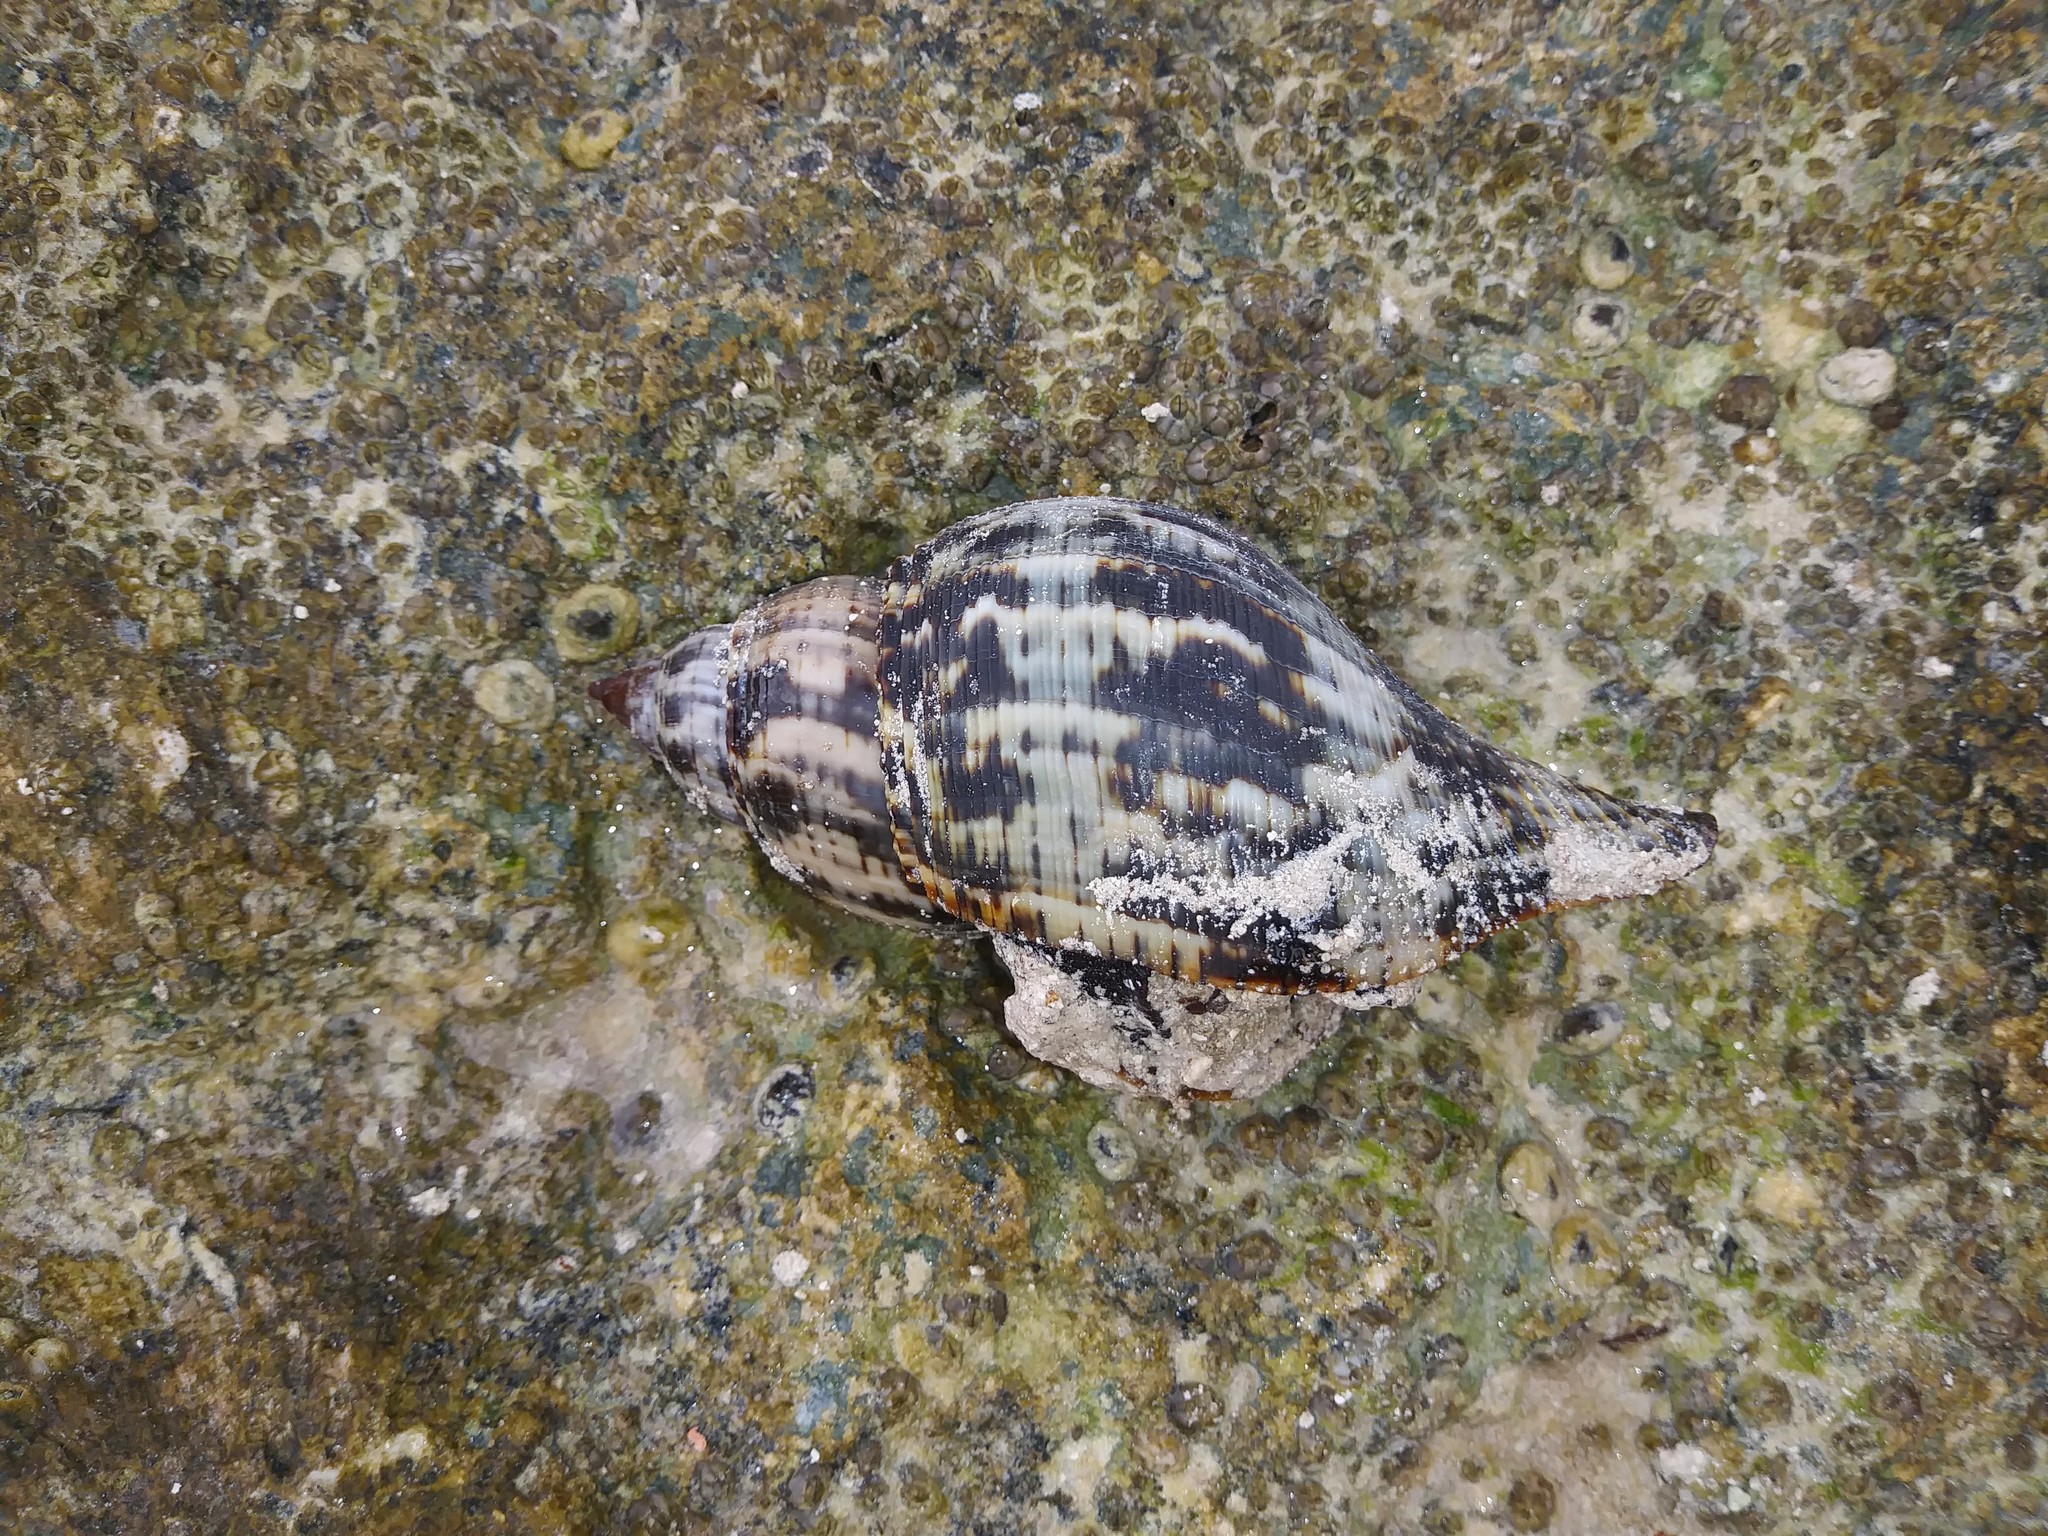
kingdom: Animalia
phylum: Mollusca
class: Gastropoda
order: Neogastropoda
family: Fasciolariidae
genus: Fasciolaria
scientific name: Fasciolaria tulipa
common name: True tulip
